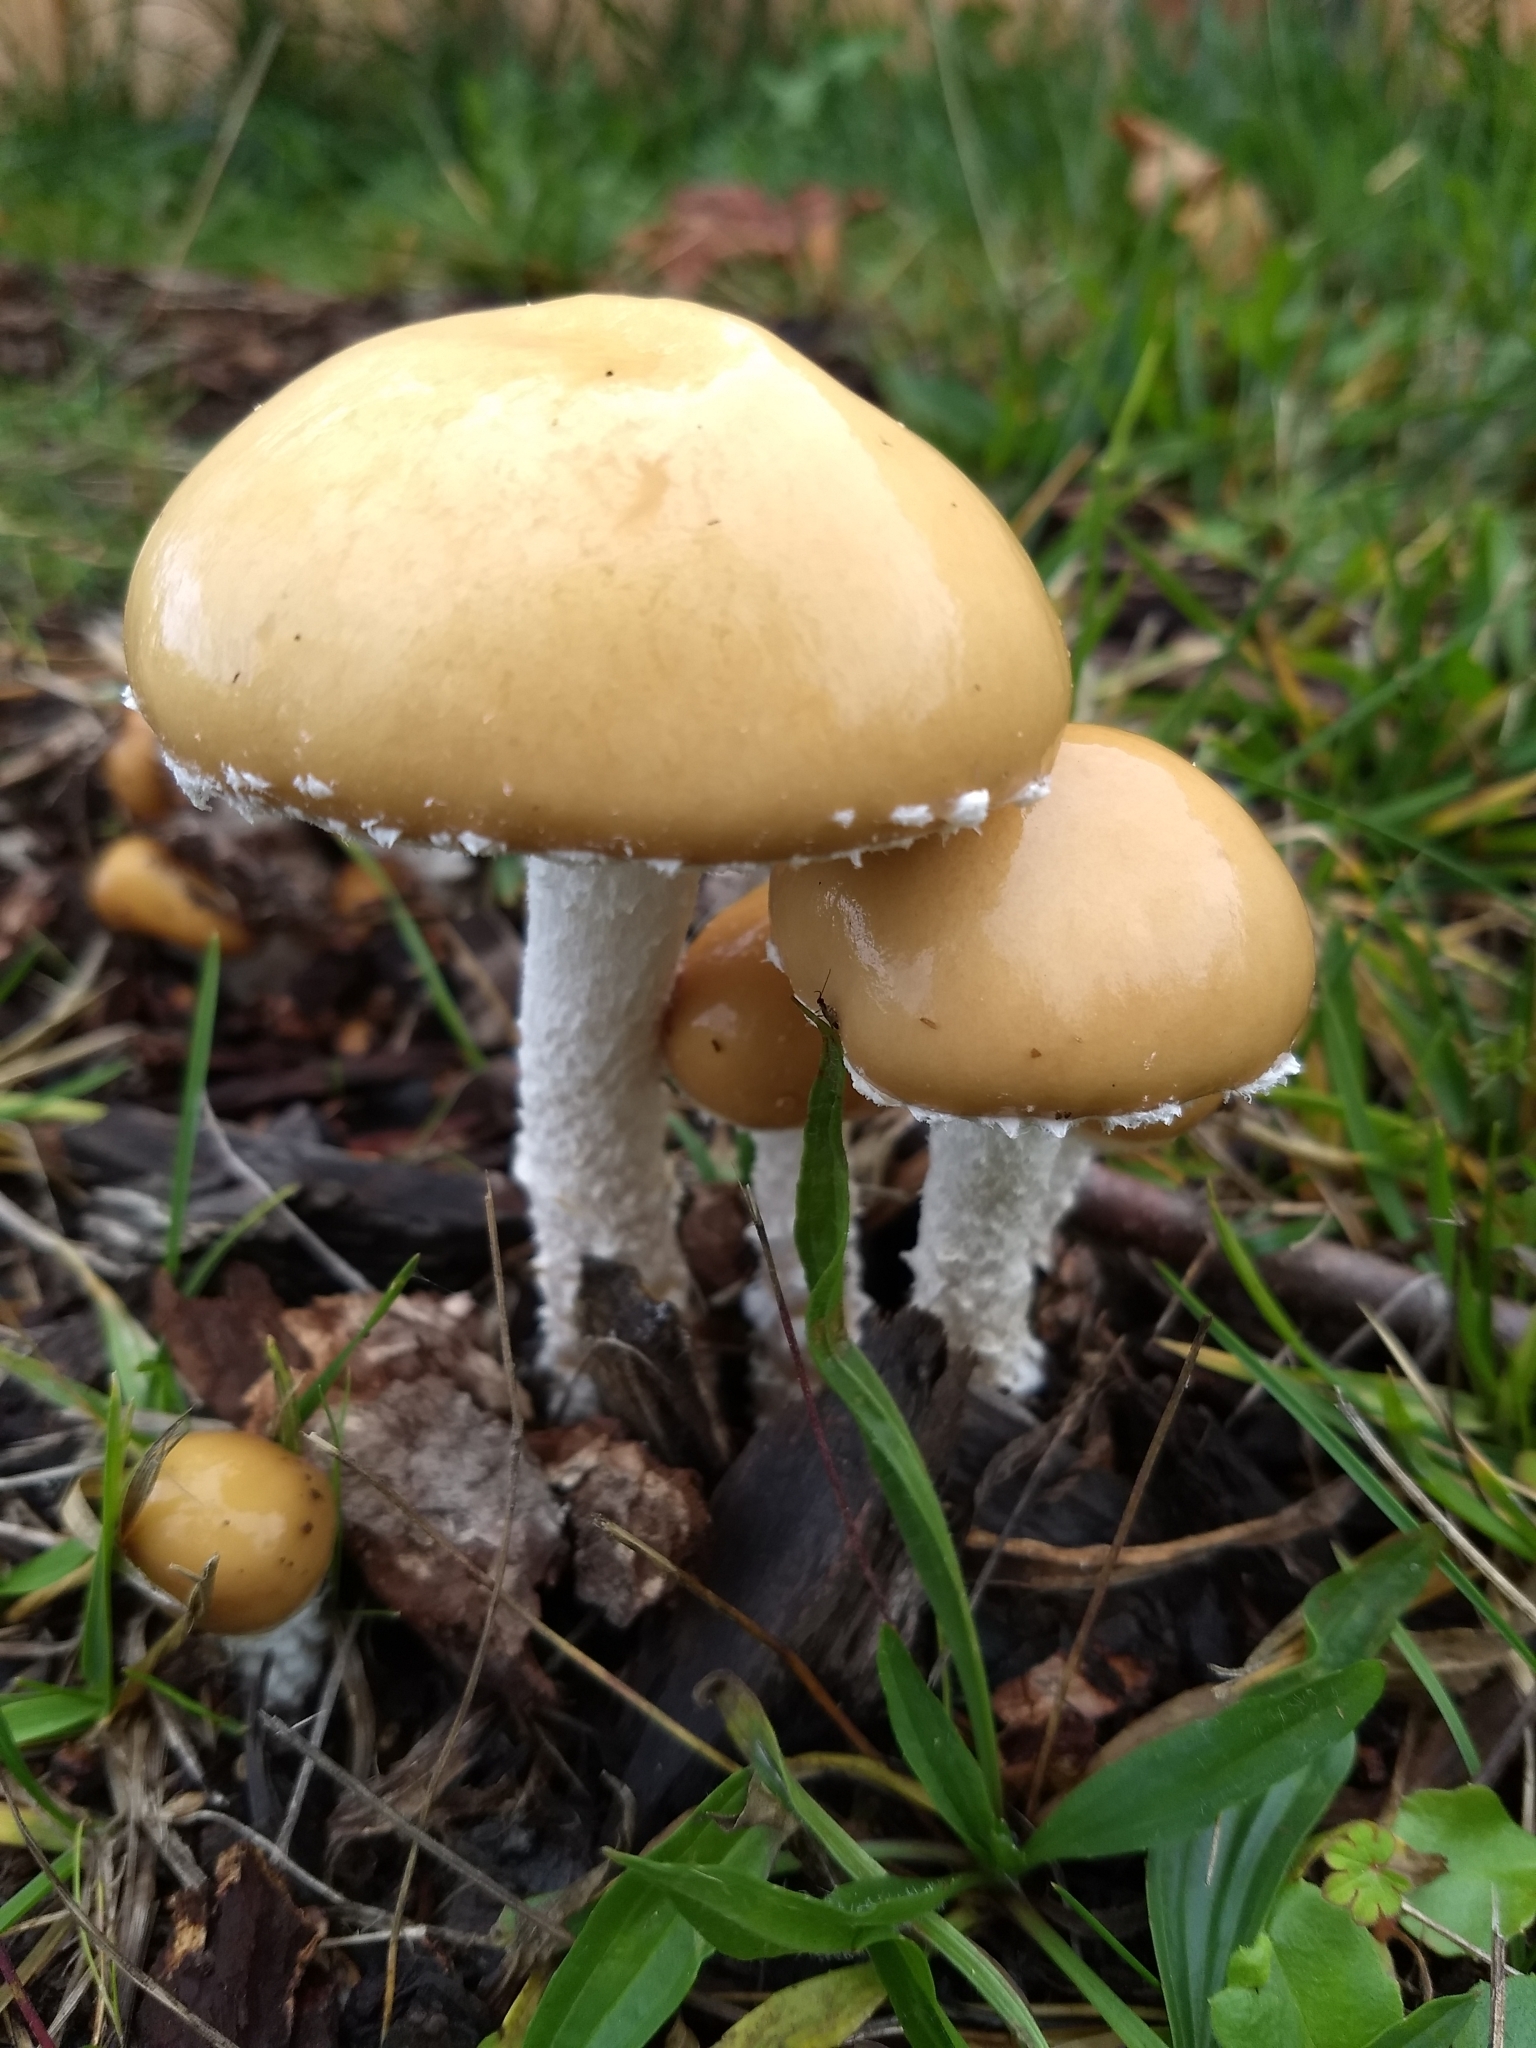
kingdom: Fungi
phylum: Basidiomycota
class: Agaricomycetes
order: Agaricales
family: Strophariaceae
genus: Stropharia
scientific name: Stropharia ambigua
